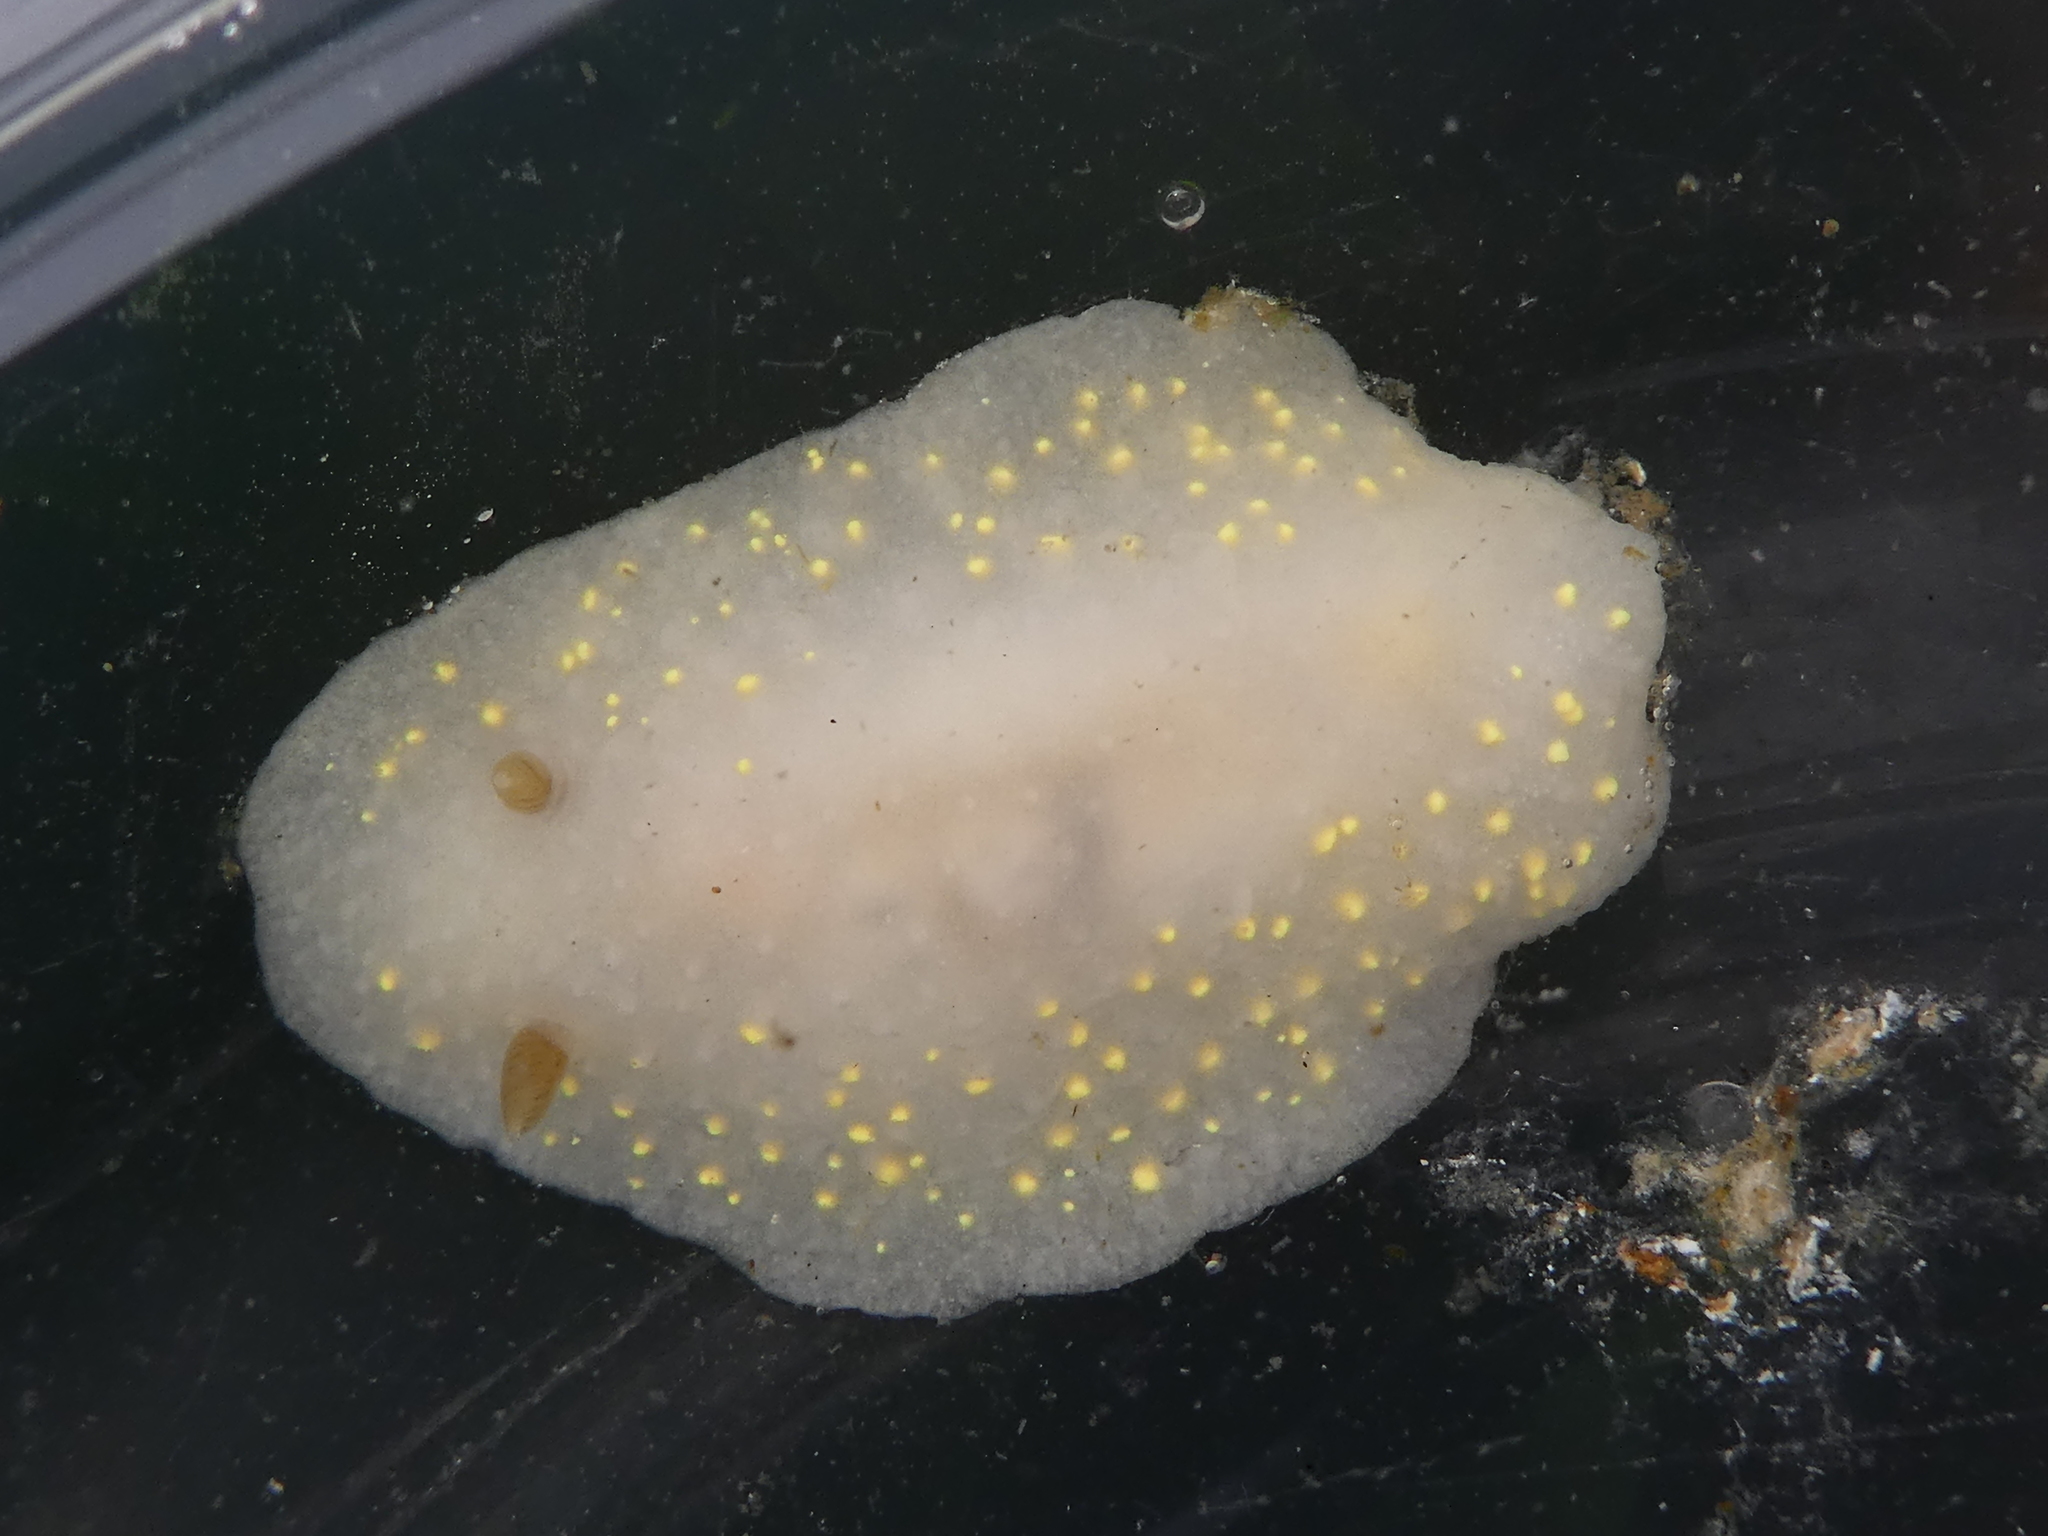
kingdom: Animalia
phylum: Mollusca
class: Gastropoda
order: Nudibranchia
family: Cadlinidae
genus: Cadlina
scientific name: Cadlina modesta
